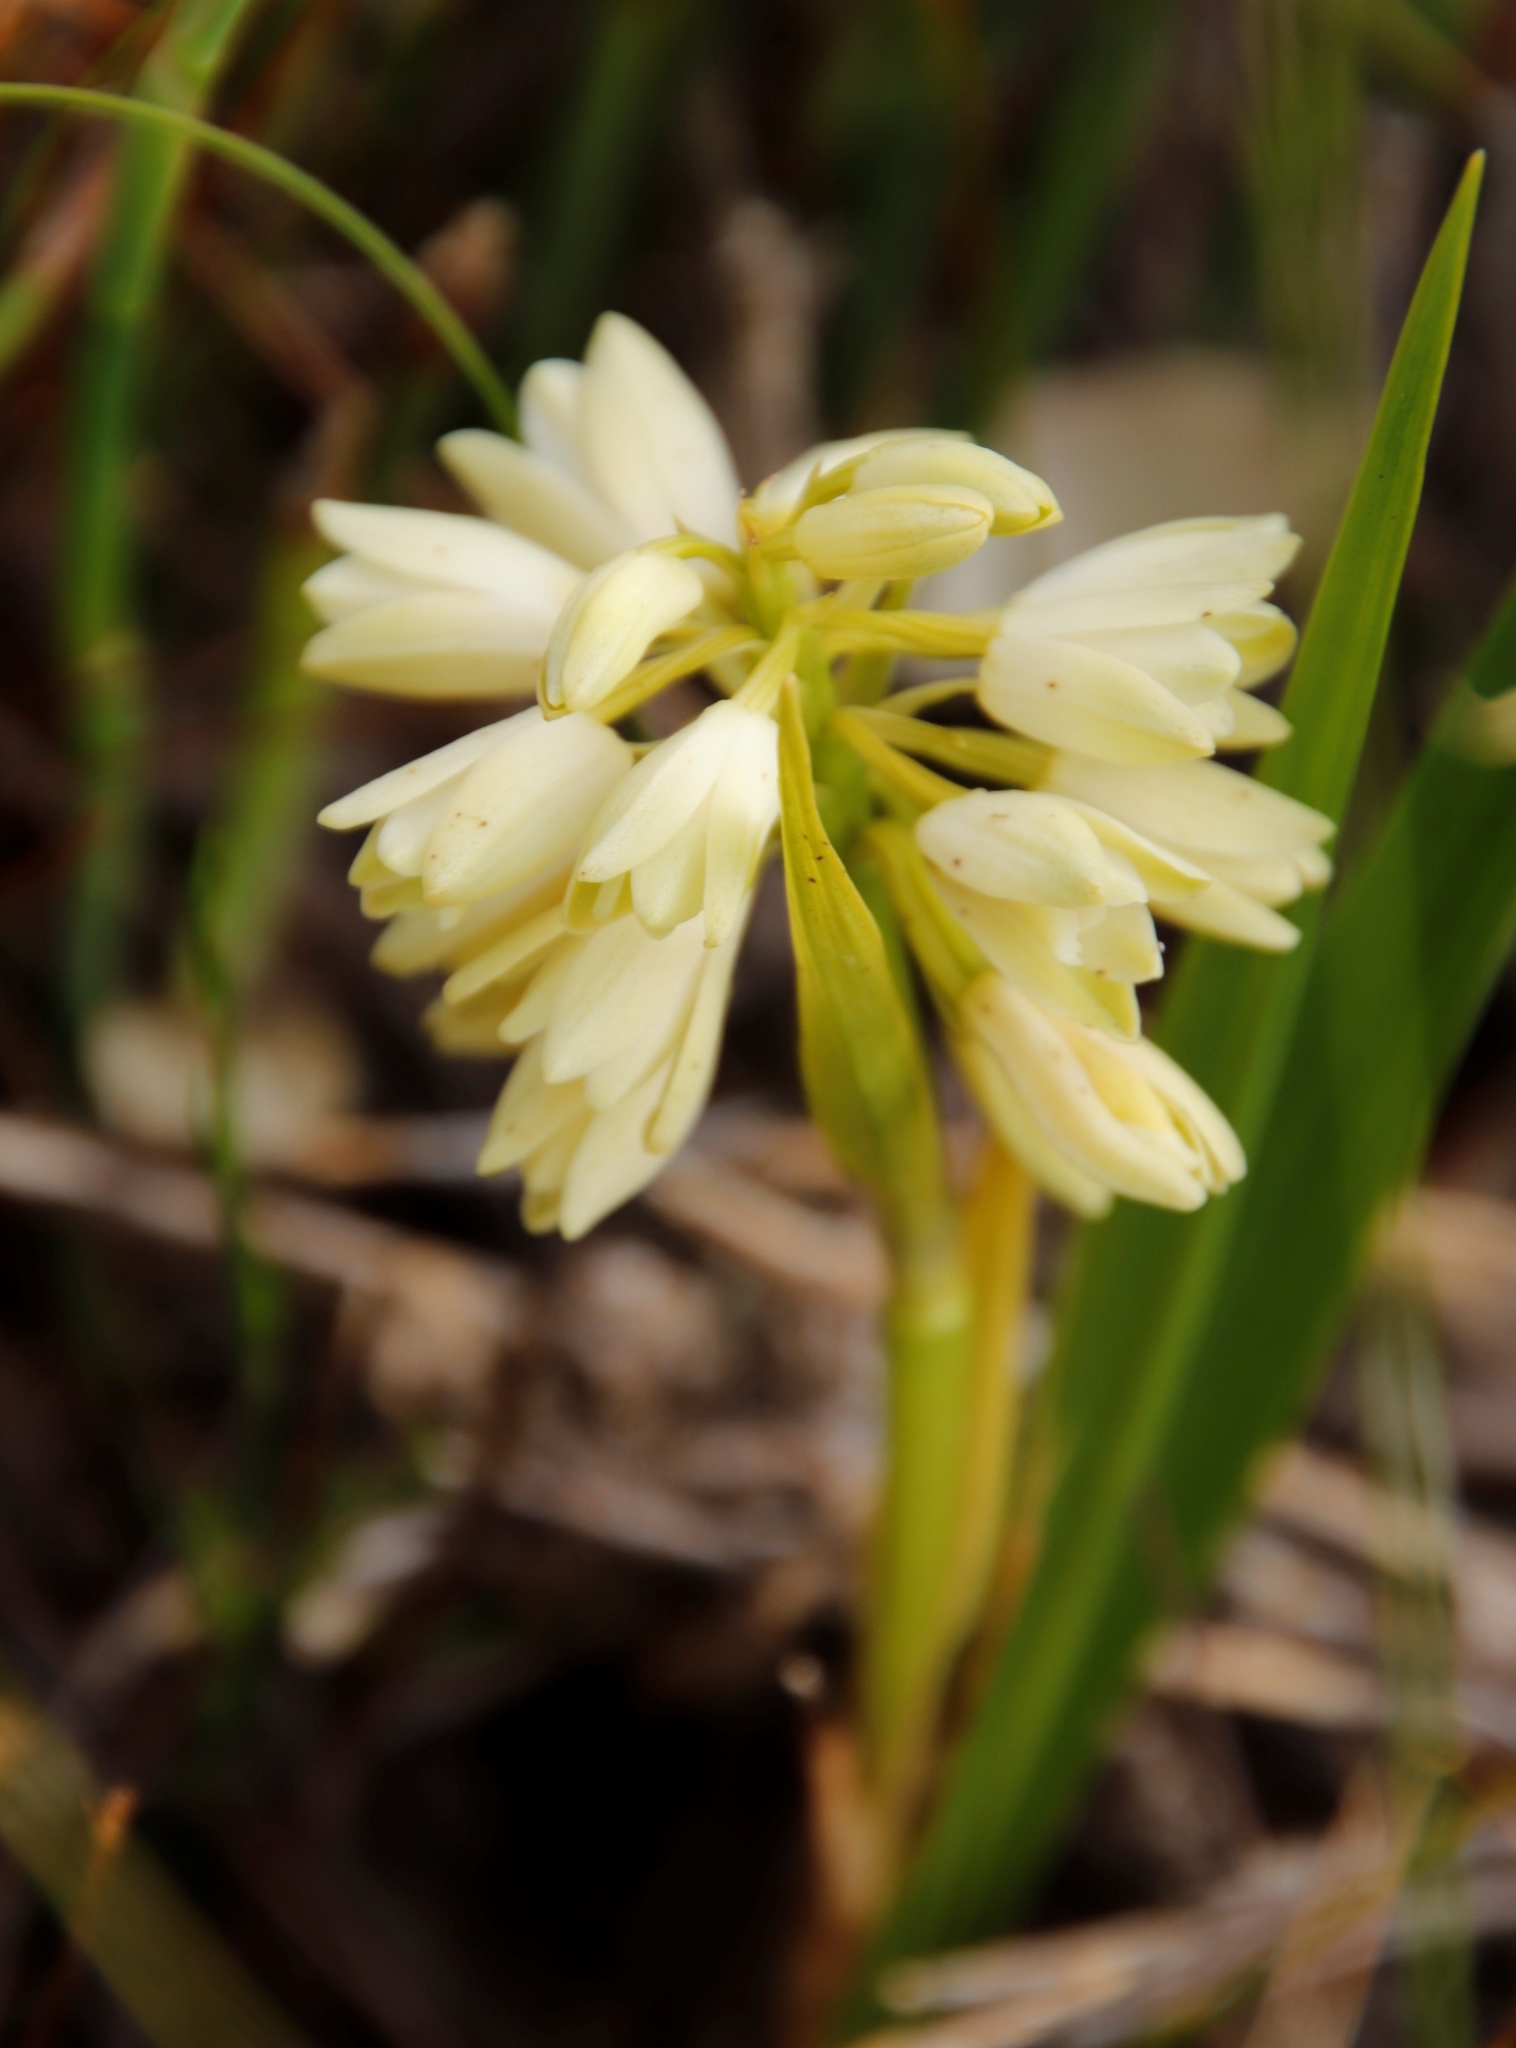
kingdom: Plantae
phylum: Tracheophyta
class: Liliopsida
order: Asparagales
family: Orchidaceae
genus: Eulophia
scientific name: Eulophia aculeata
